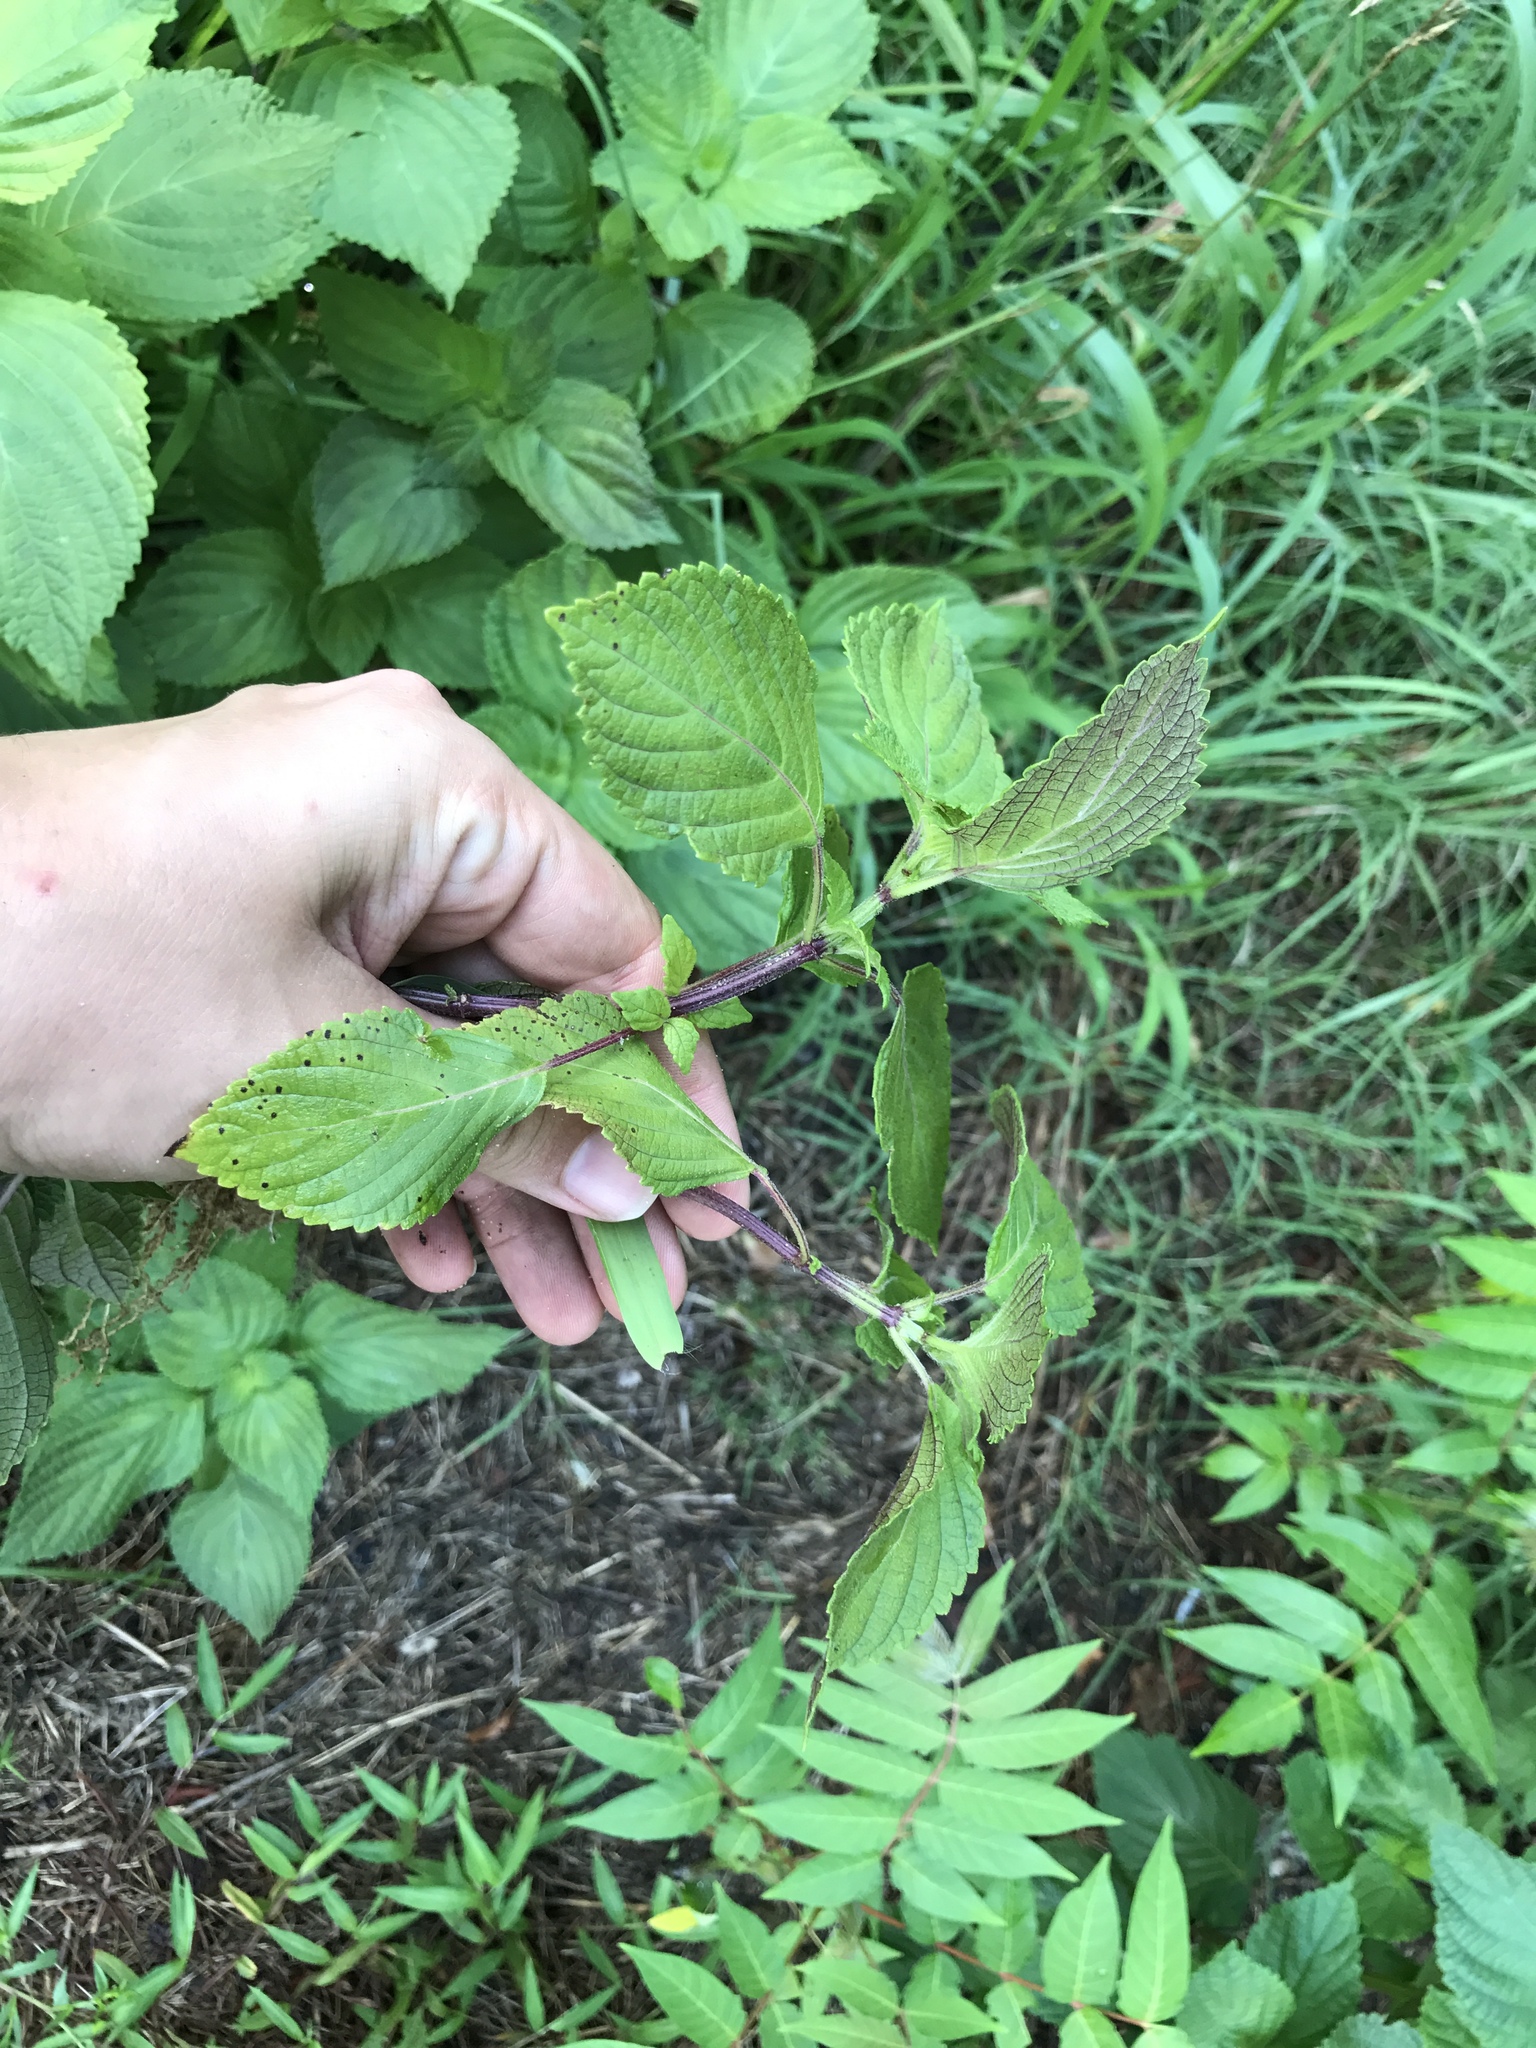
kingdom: Plantae
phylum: Tracheophyta
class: Magnoliopsida
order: Lamiales
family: Lamiaceae
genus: Perilla
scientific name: Perilla frutescens
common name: Perilla
